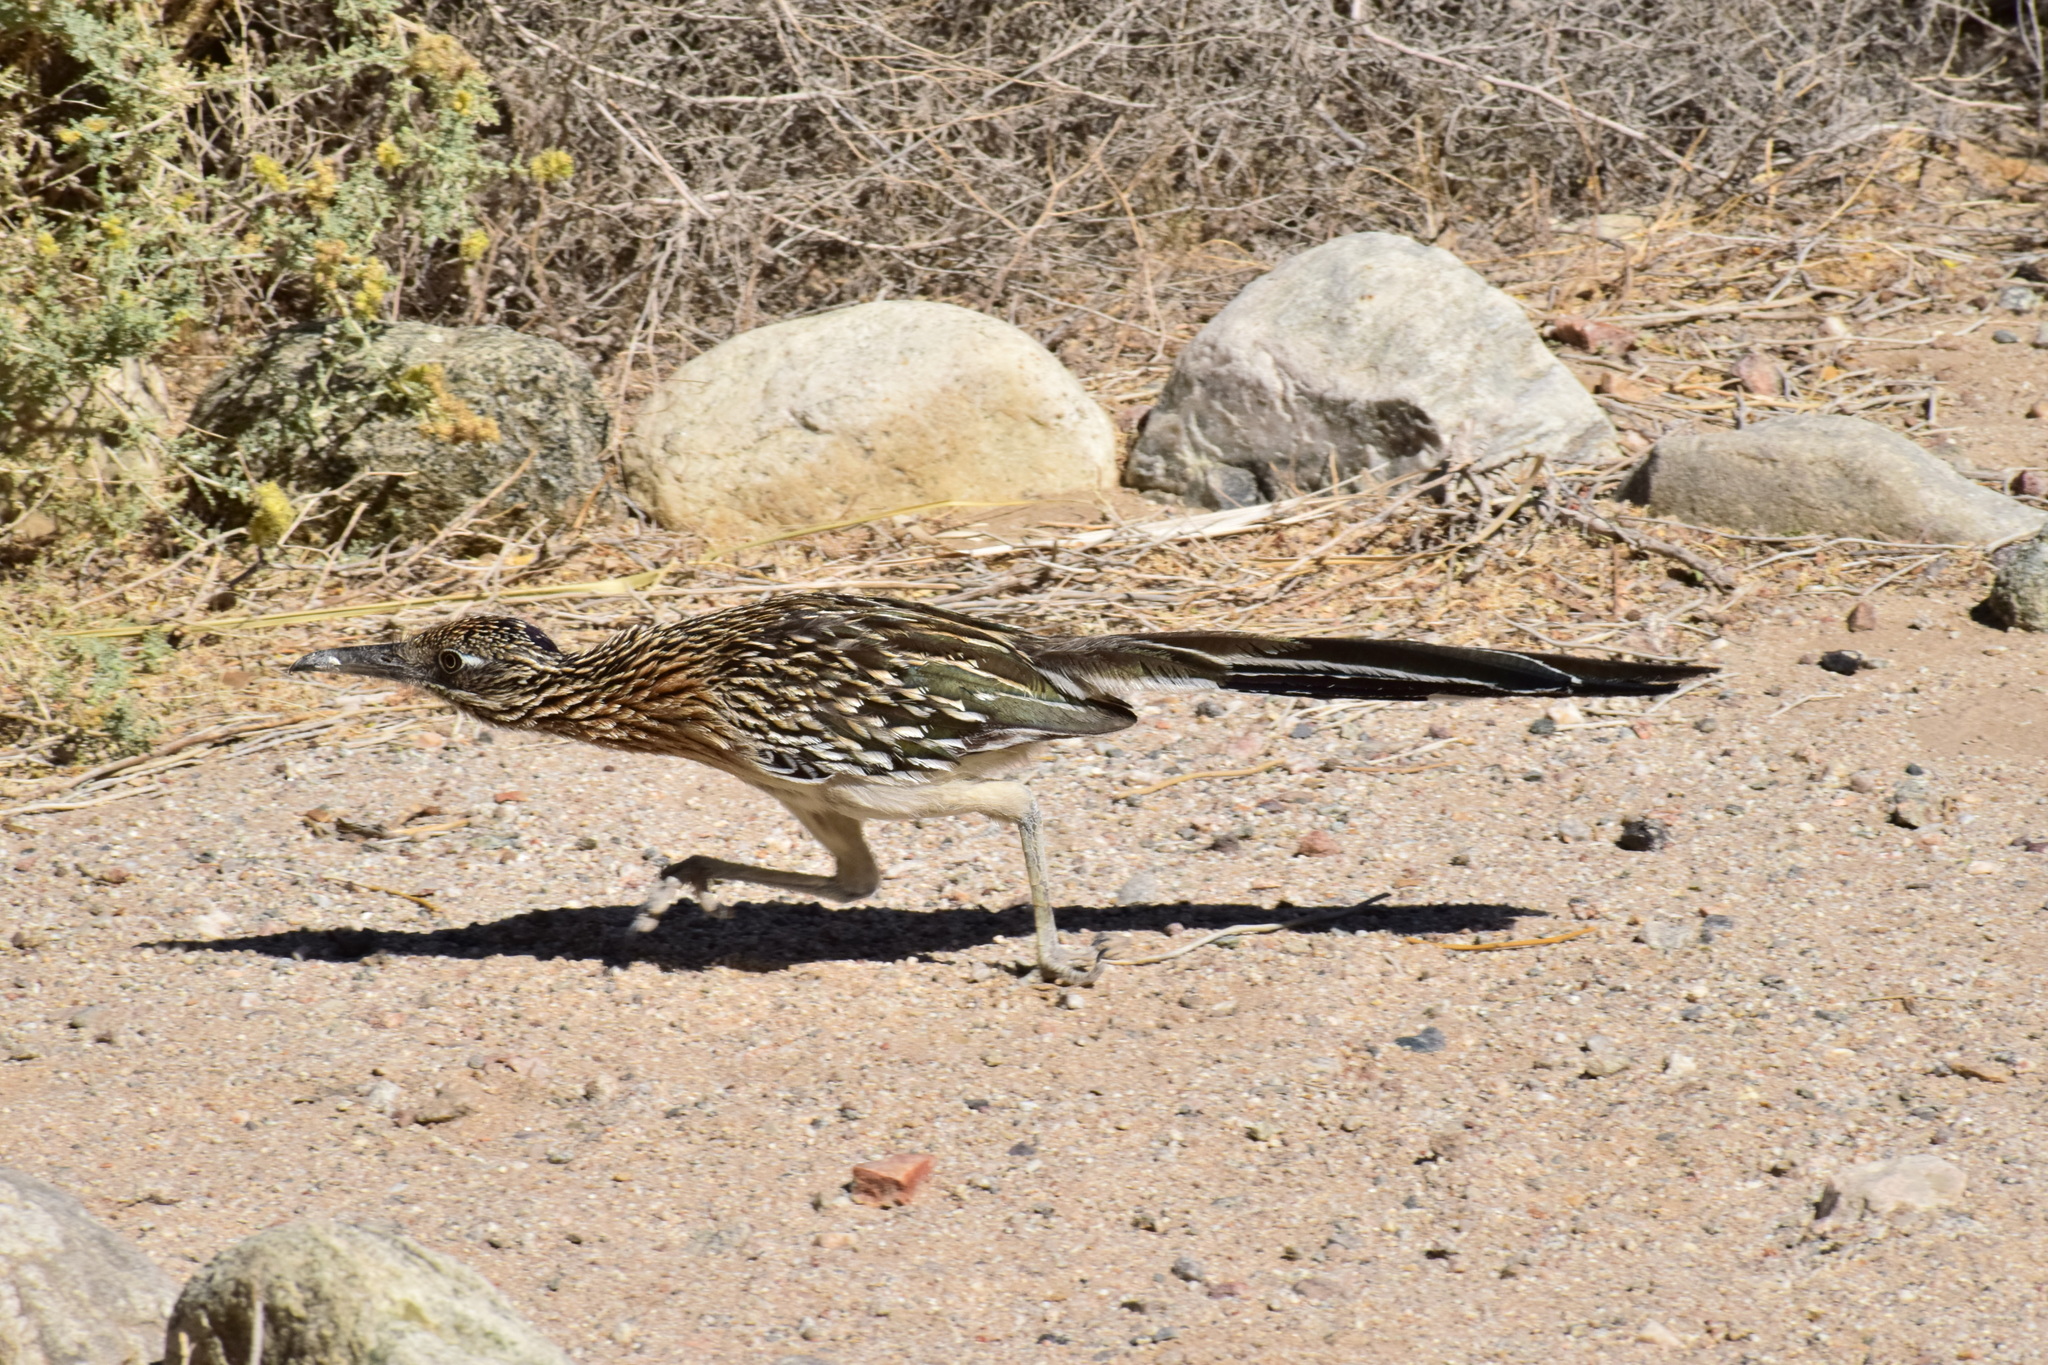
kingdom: Animalia
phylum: Chordata
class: Aves
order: Cuculiformes
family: Cuculidae
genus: Geococcyx
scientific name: Geococcyx californianus
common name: Greater roadrunner
